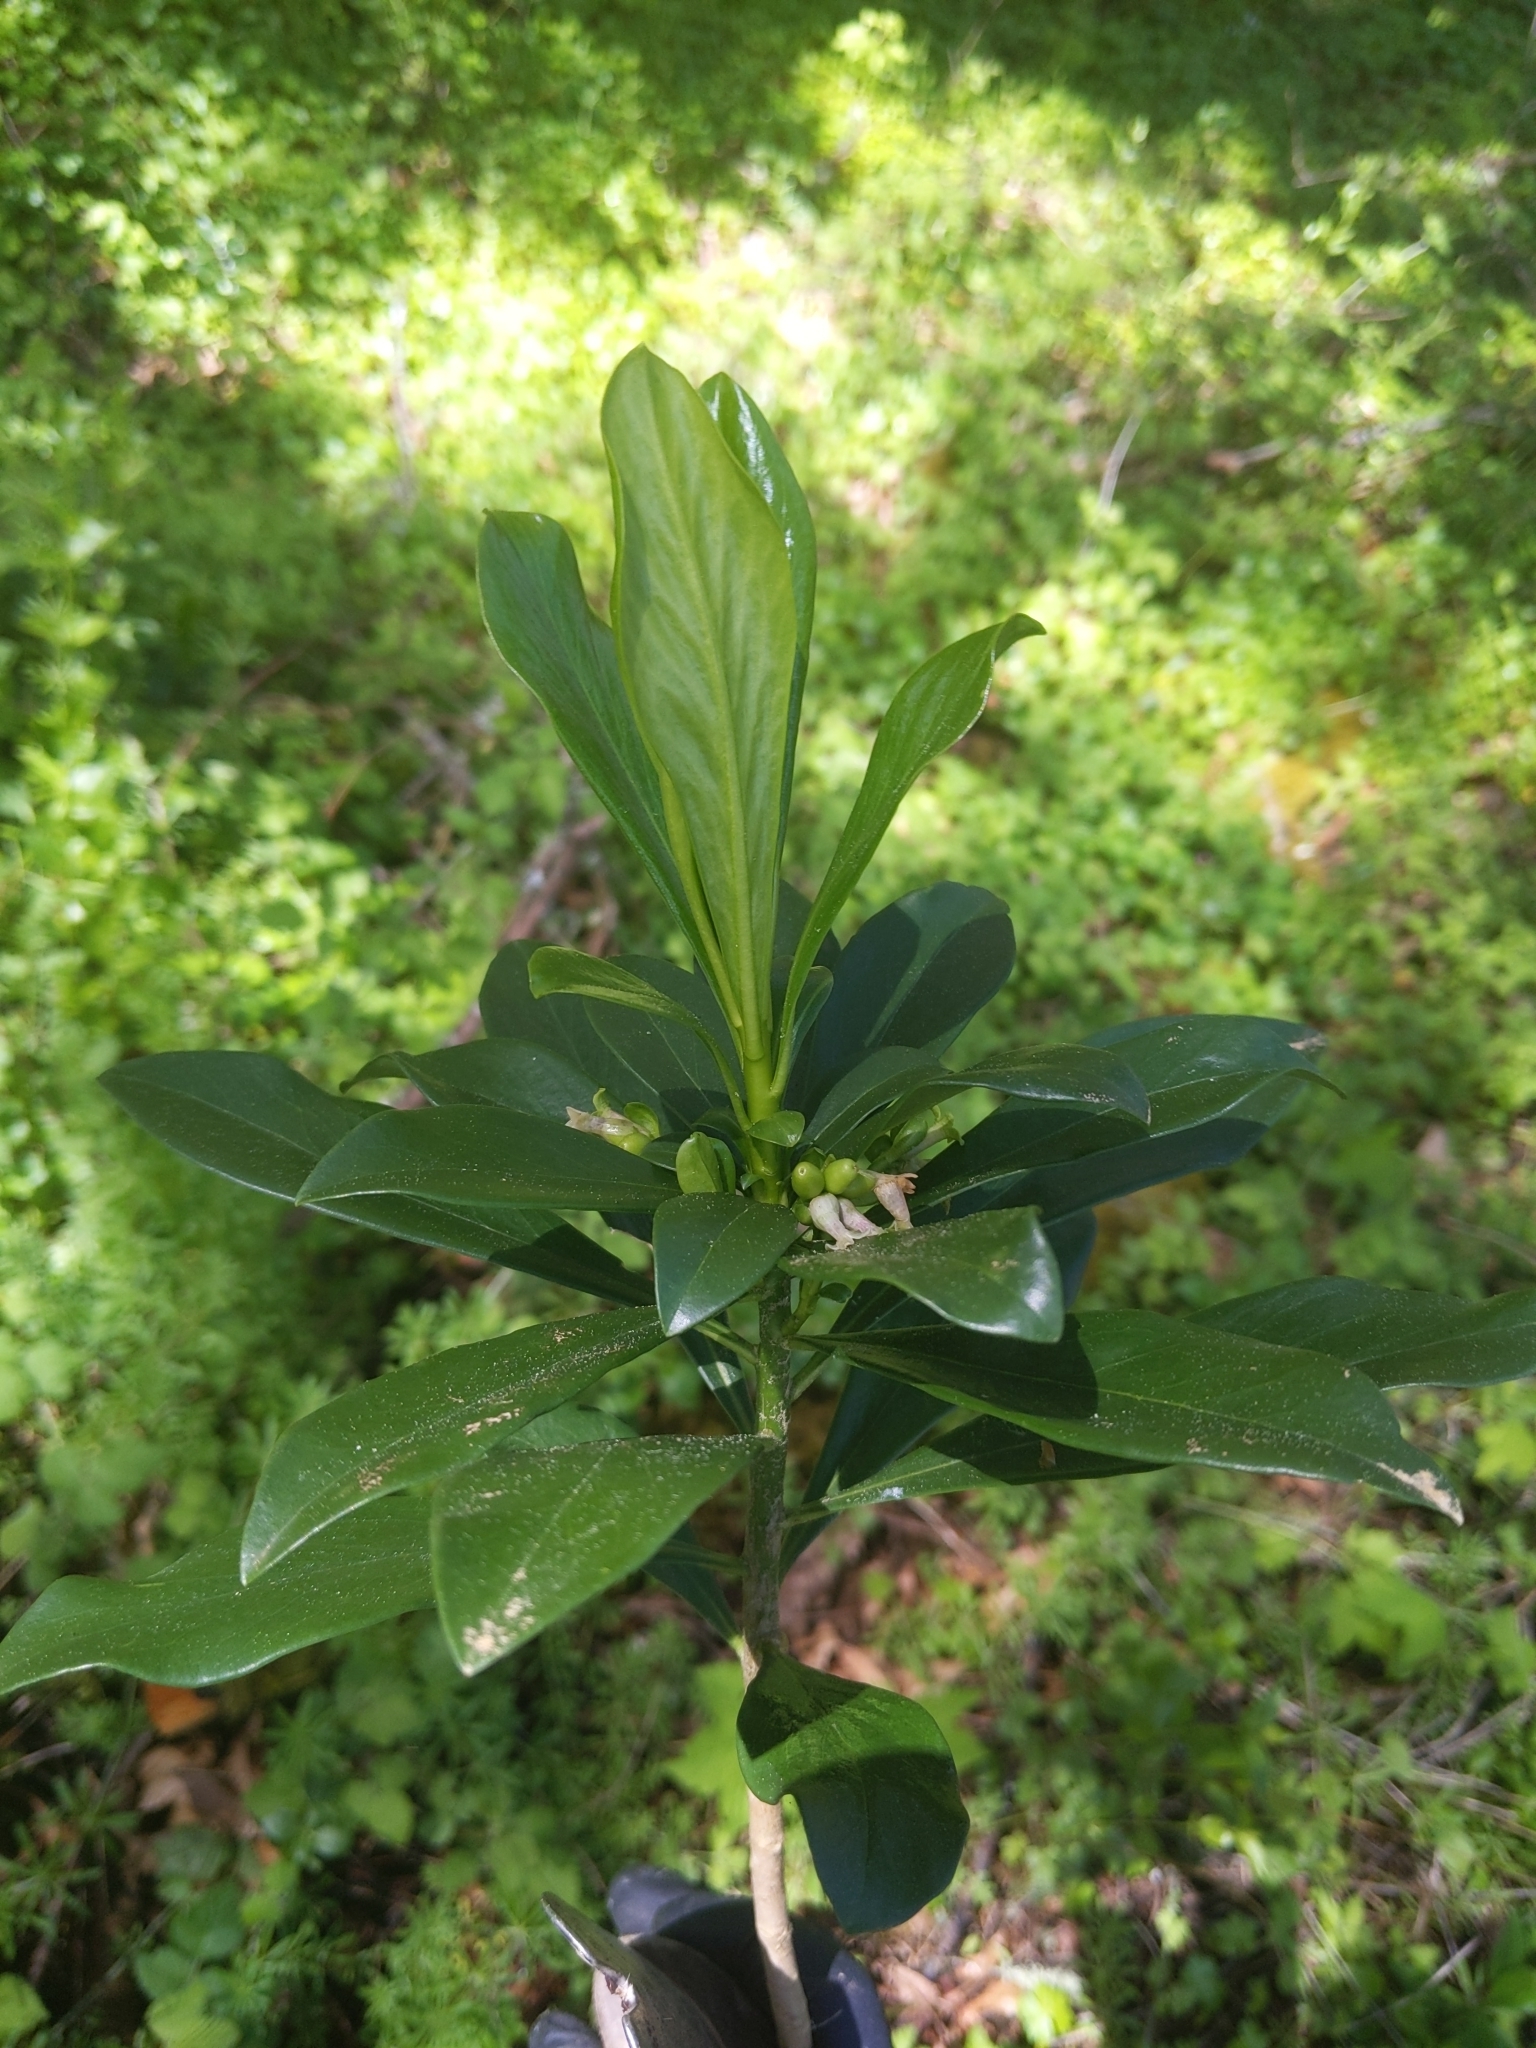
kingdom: Plantae
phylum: Tracheophyta
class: Magnoliopsida
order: Malvales
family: Thymelaeaceae
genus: Daphne
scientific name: Daphne laureola
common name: Spurge-laurel
